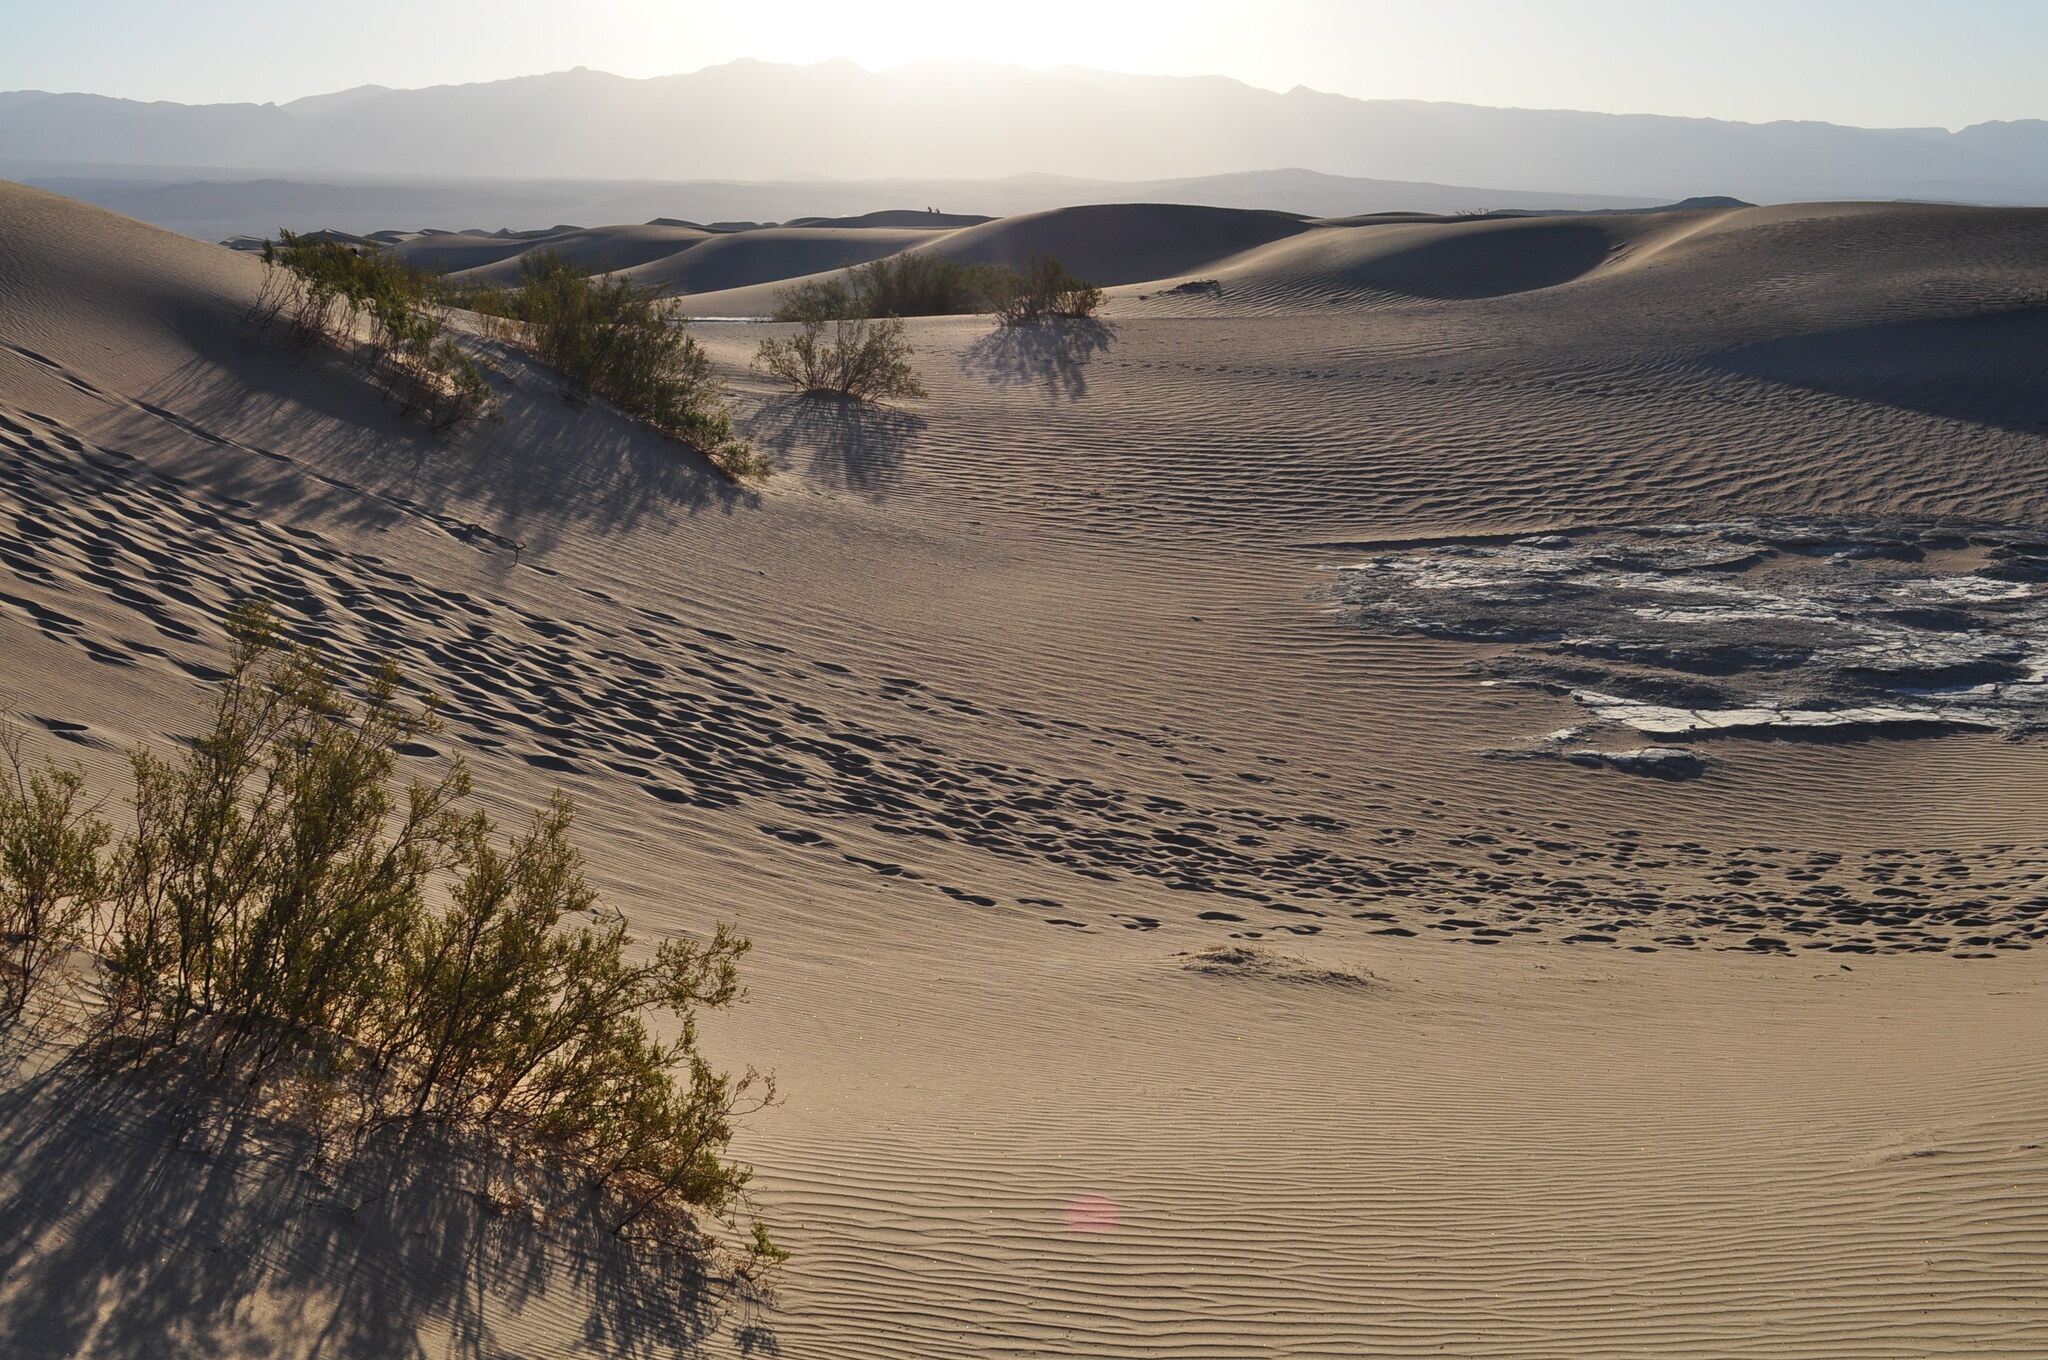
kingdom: Plantae
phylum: Tracheophyta
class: Magnoliopsida
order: Zygophyllales
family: Zygophyllaceae
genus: Larrea
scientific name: Larrea tridentata
